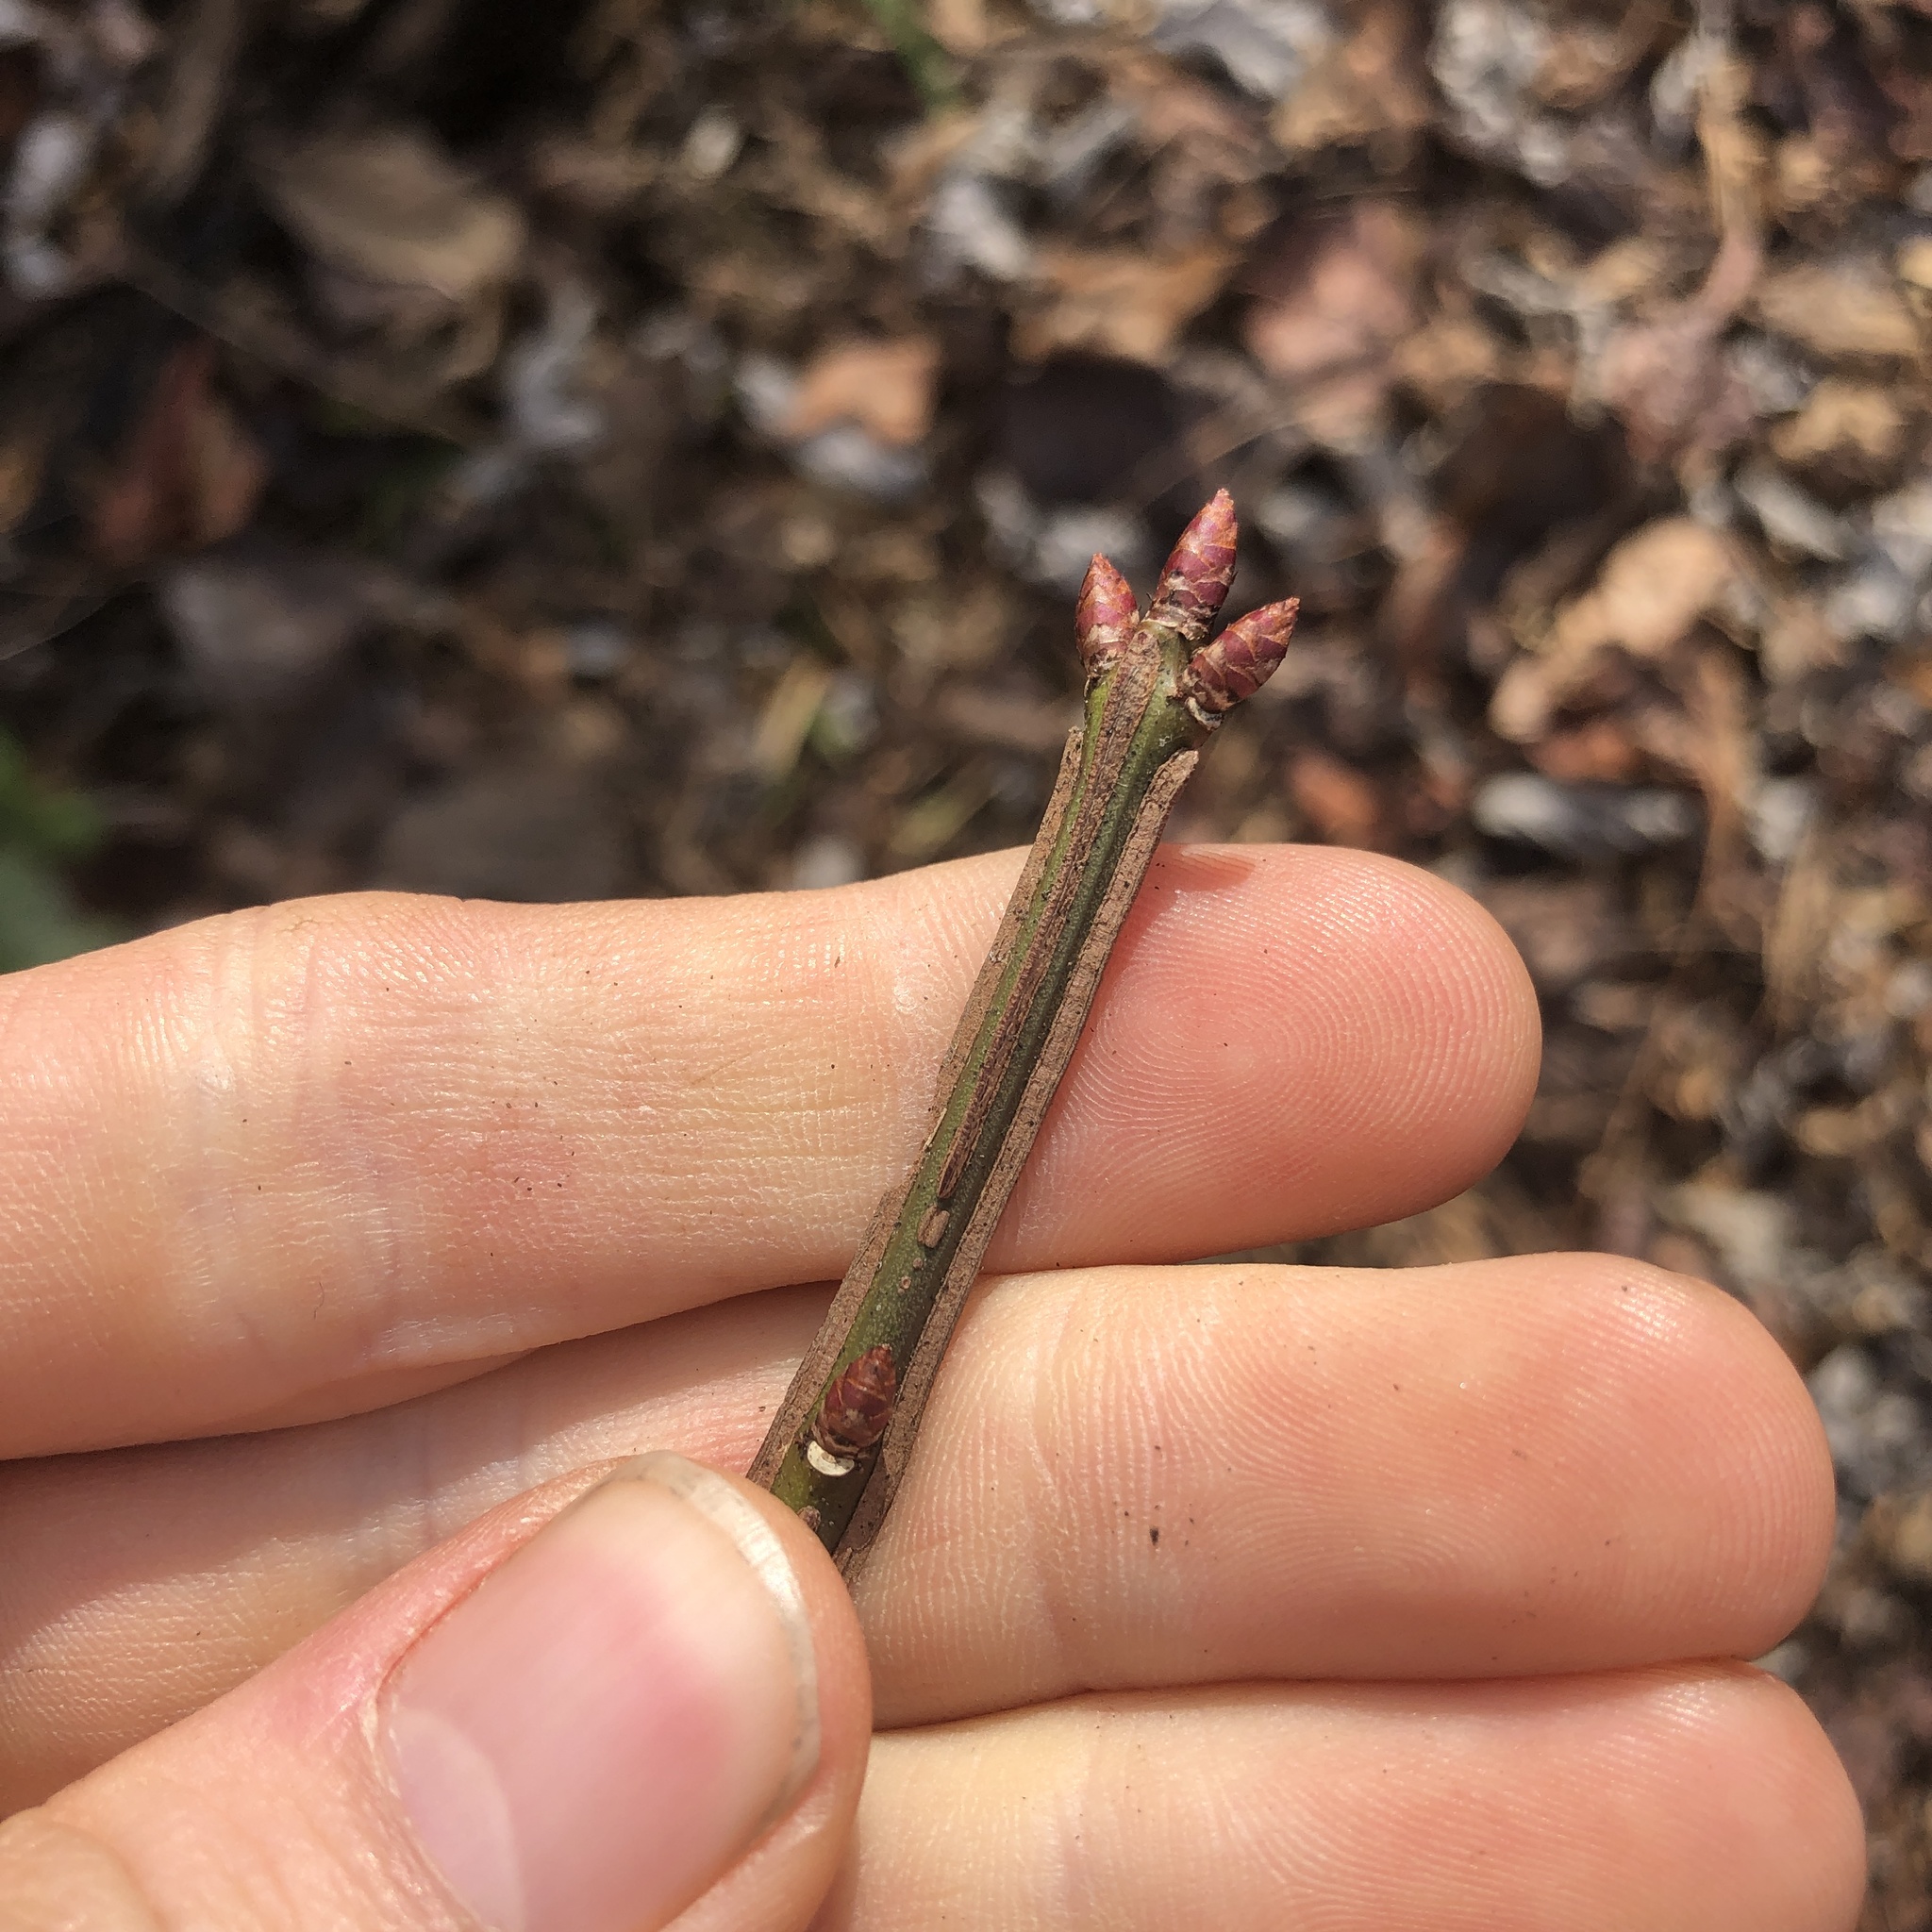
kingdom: Plantae
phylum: Tracheophyta
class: Magnoliopsida
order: Celastrales
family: Celastraceae
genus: Euonymus
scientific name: Euonymus alatus
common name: Winged euonymus
